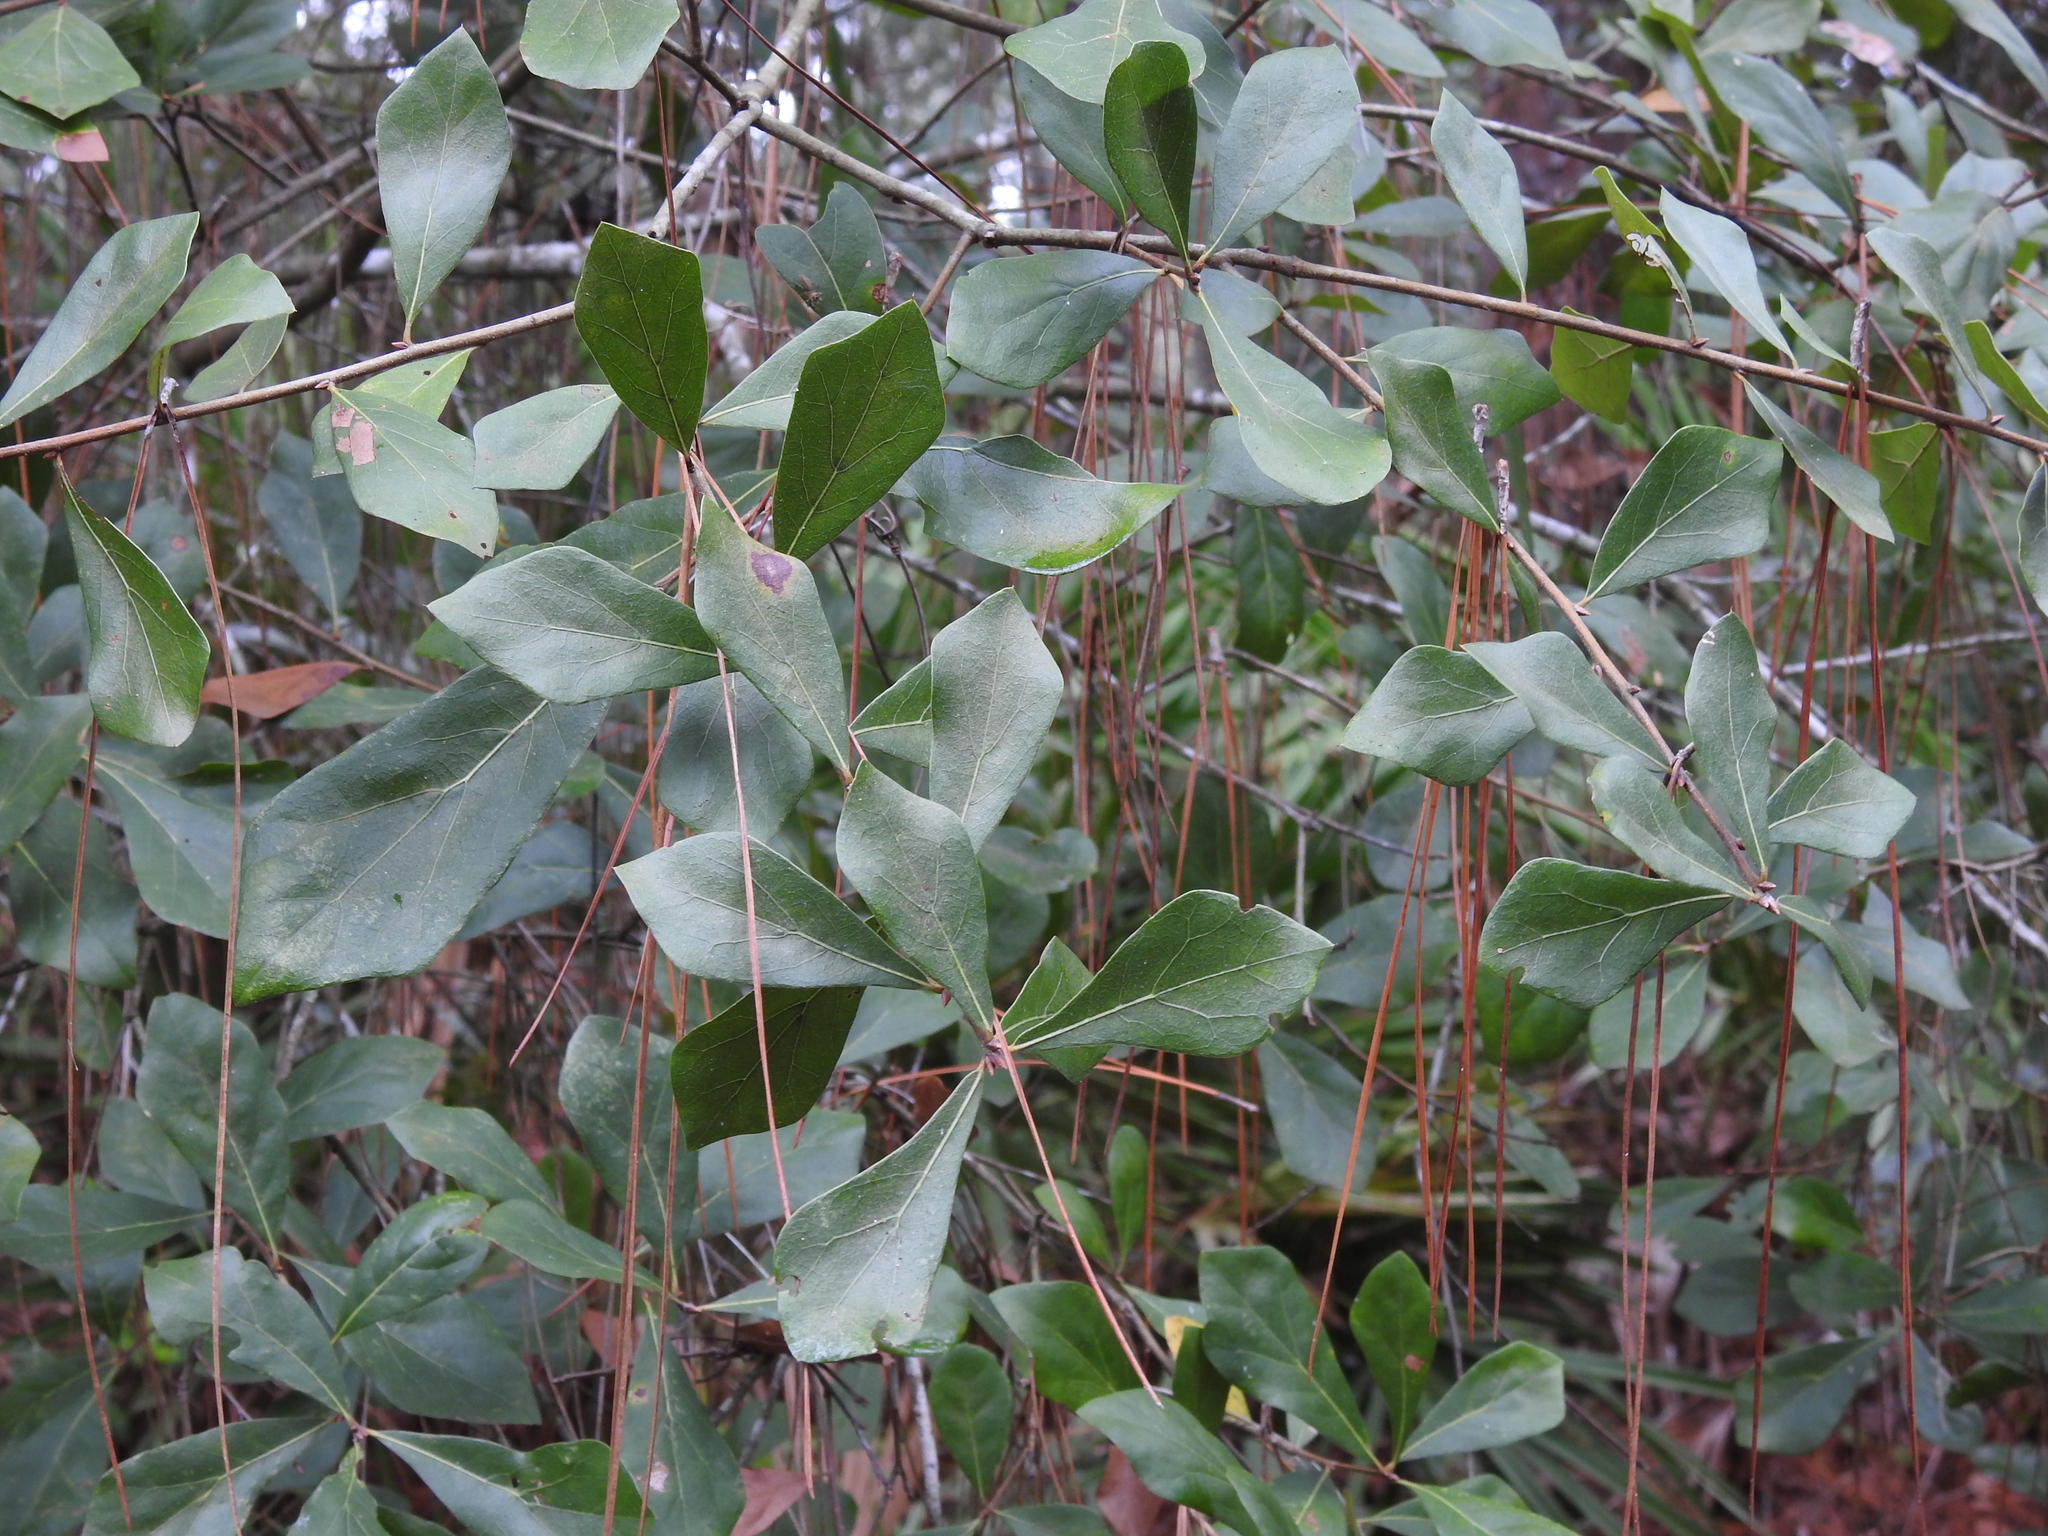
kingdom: Plantae
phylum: Tracheophyta
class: Magnoliopsida
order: Fagales
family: Fagaceae
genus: Quercus
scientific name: Quercus nigra
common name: Water oak
